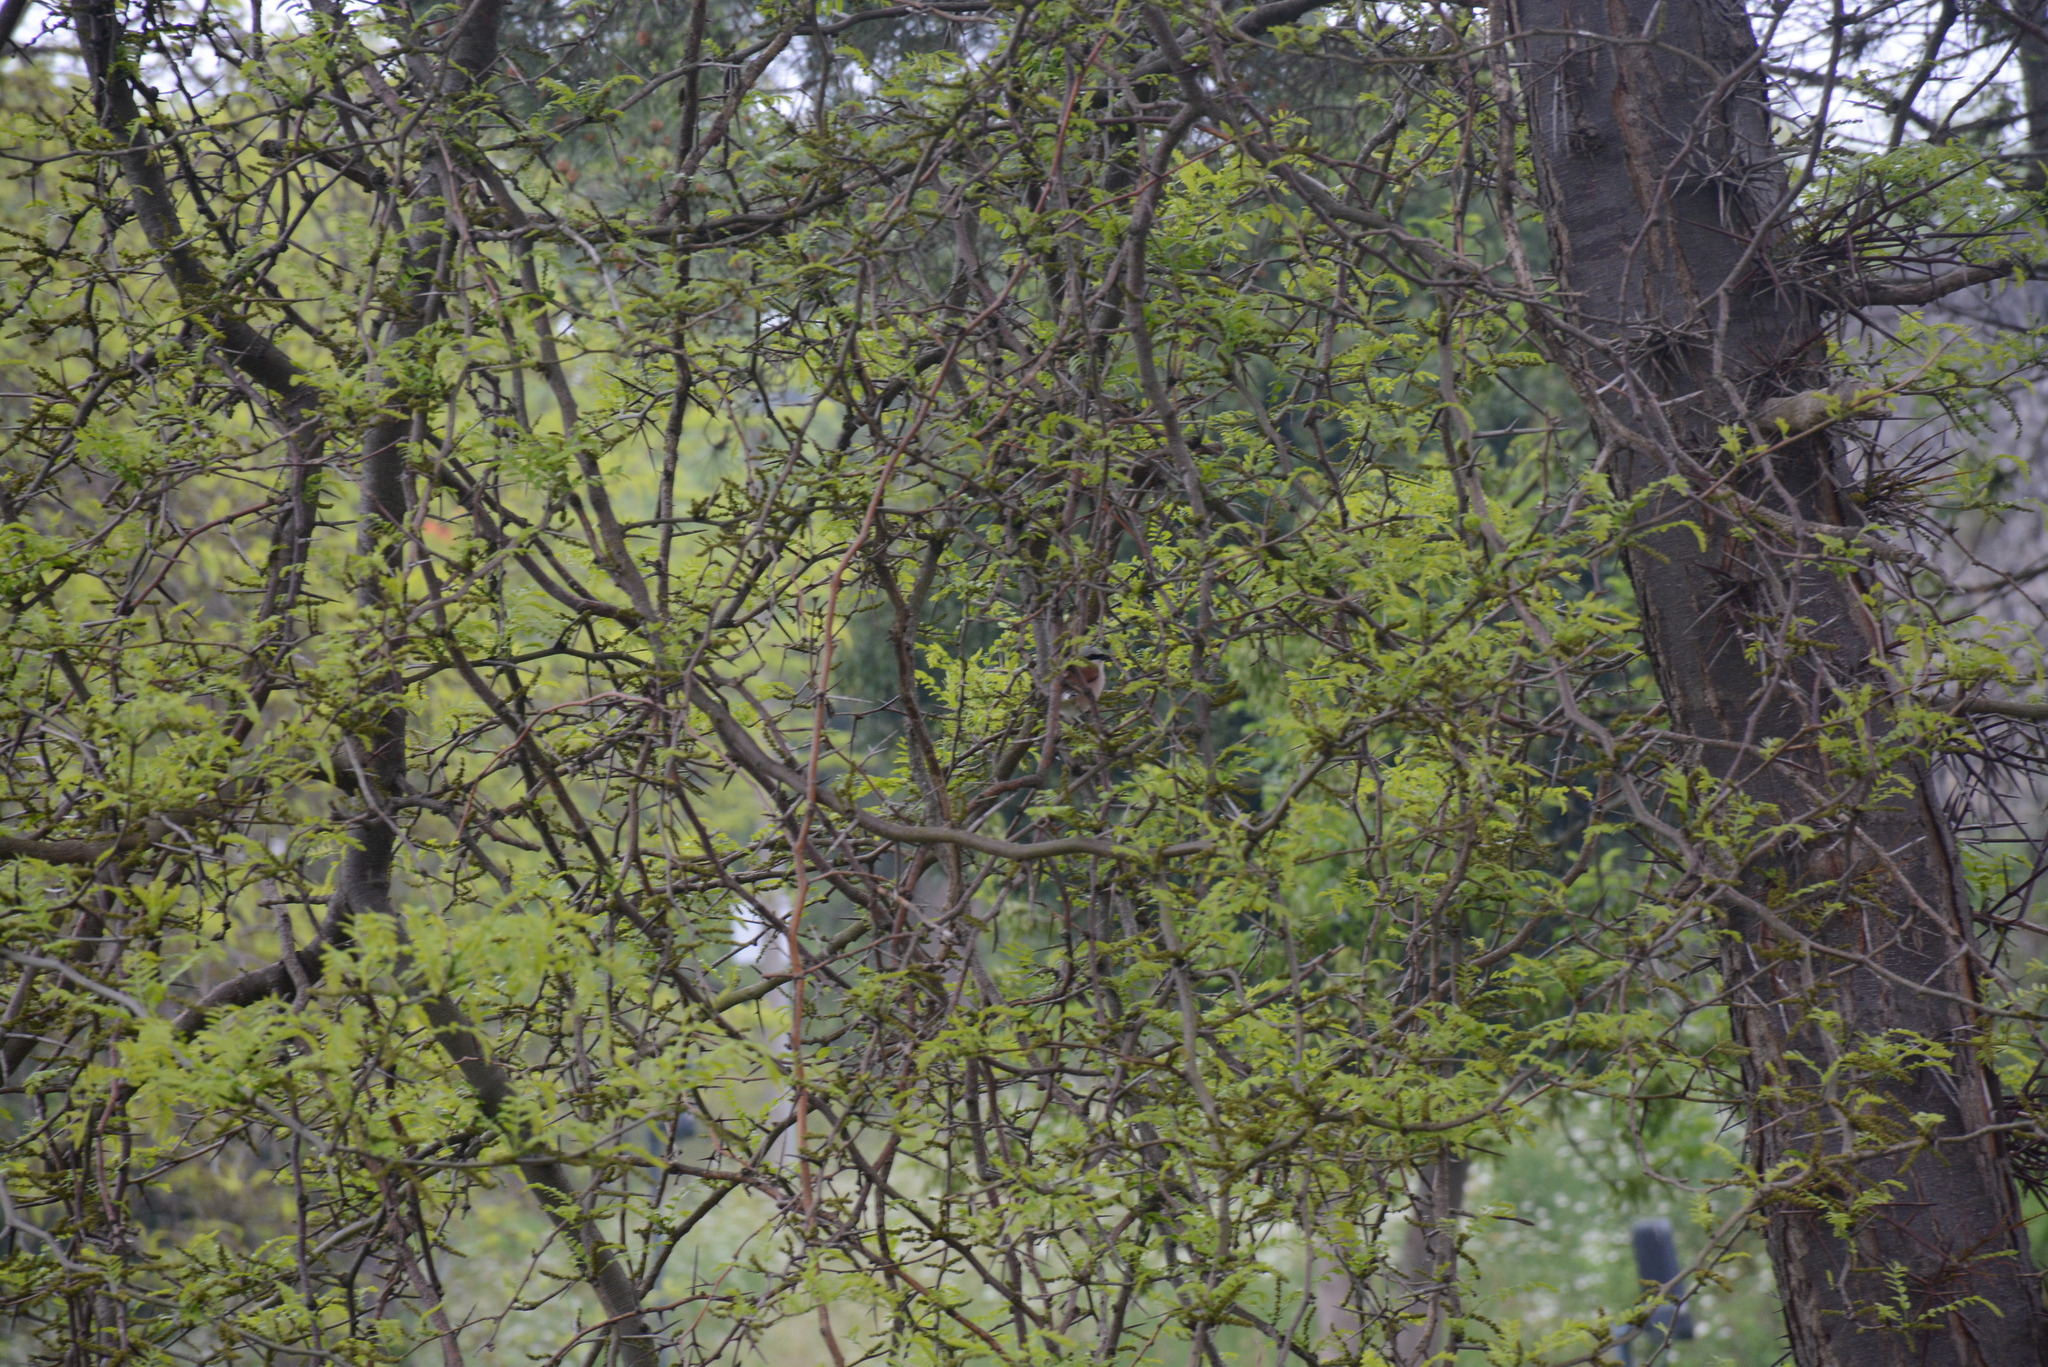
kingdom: Animalia
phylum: Chordata
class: Aves
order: Passeriformes
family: Laniidae
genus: Lanius
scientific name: Lanius collurio
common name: Red-backed shrike
